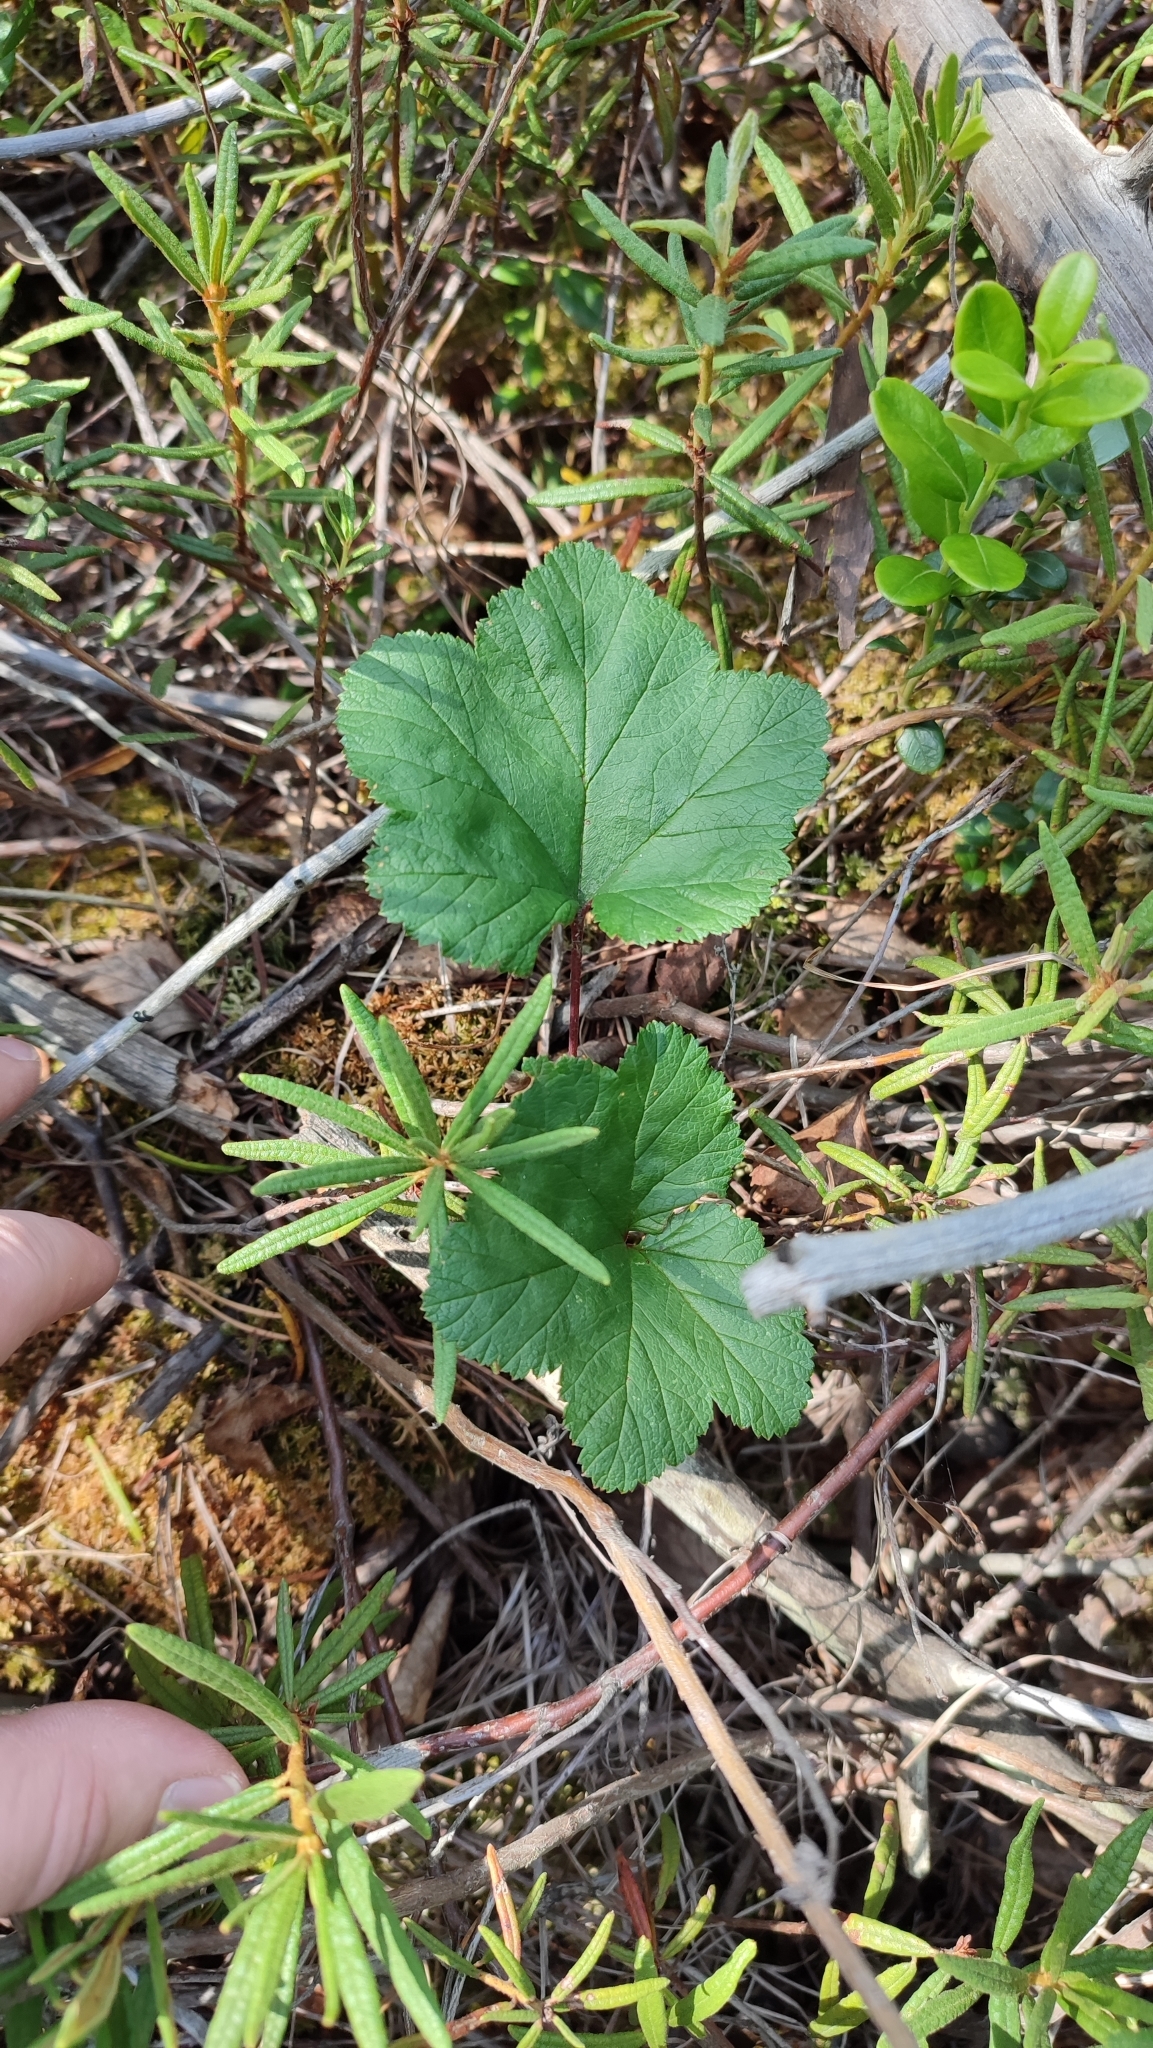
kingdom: Plantae
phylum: Tracheophyta
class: Magnoliopsida
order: Rosales
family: Rosaceae
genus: Rubus
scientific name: Rubus chamaemorus
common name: Cloudberry
